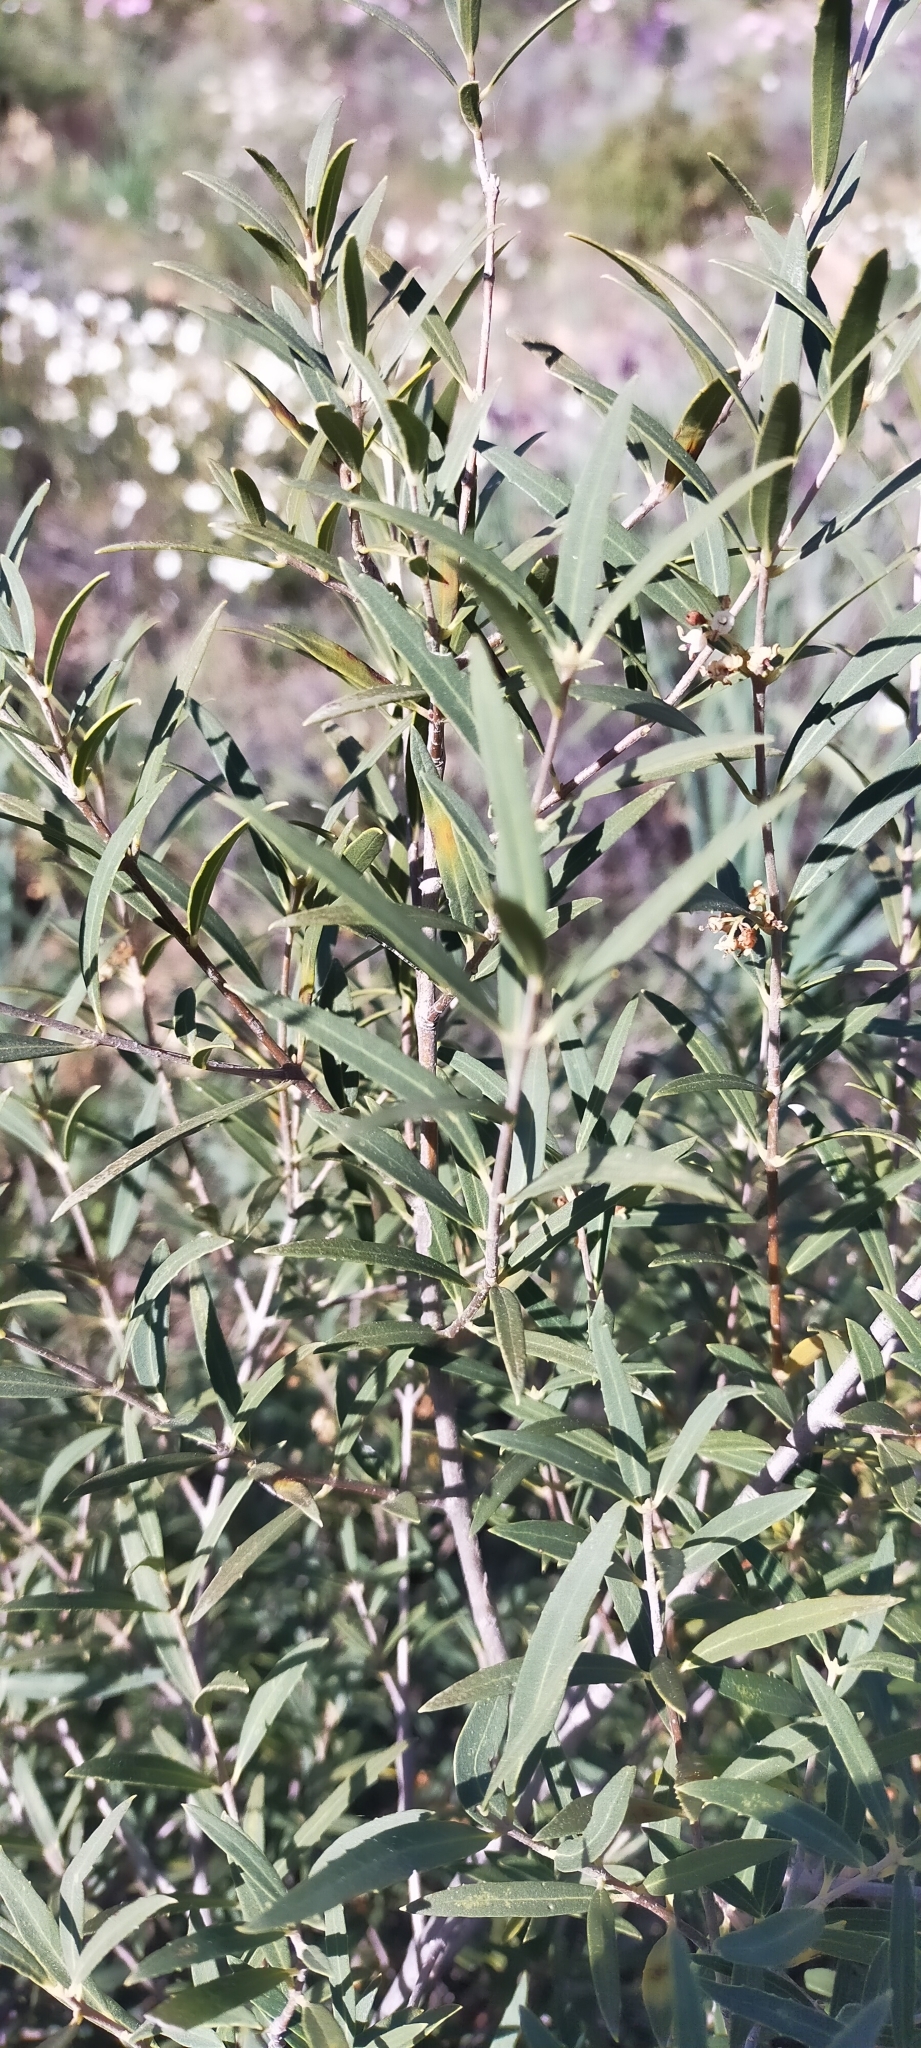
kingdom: Plantae
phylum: Tracheophyta
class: Magnoliopsida
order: Lamiales
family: Oleaceae
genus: Phillyrea
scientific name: Phillyrea angustifolia
